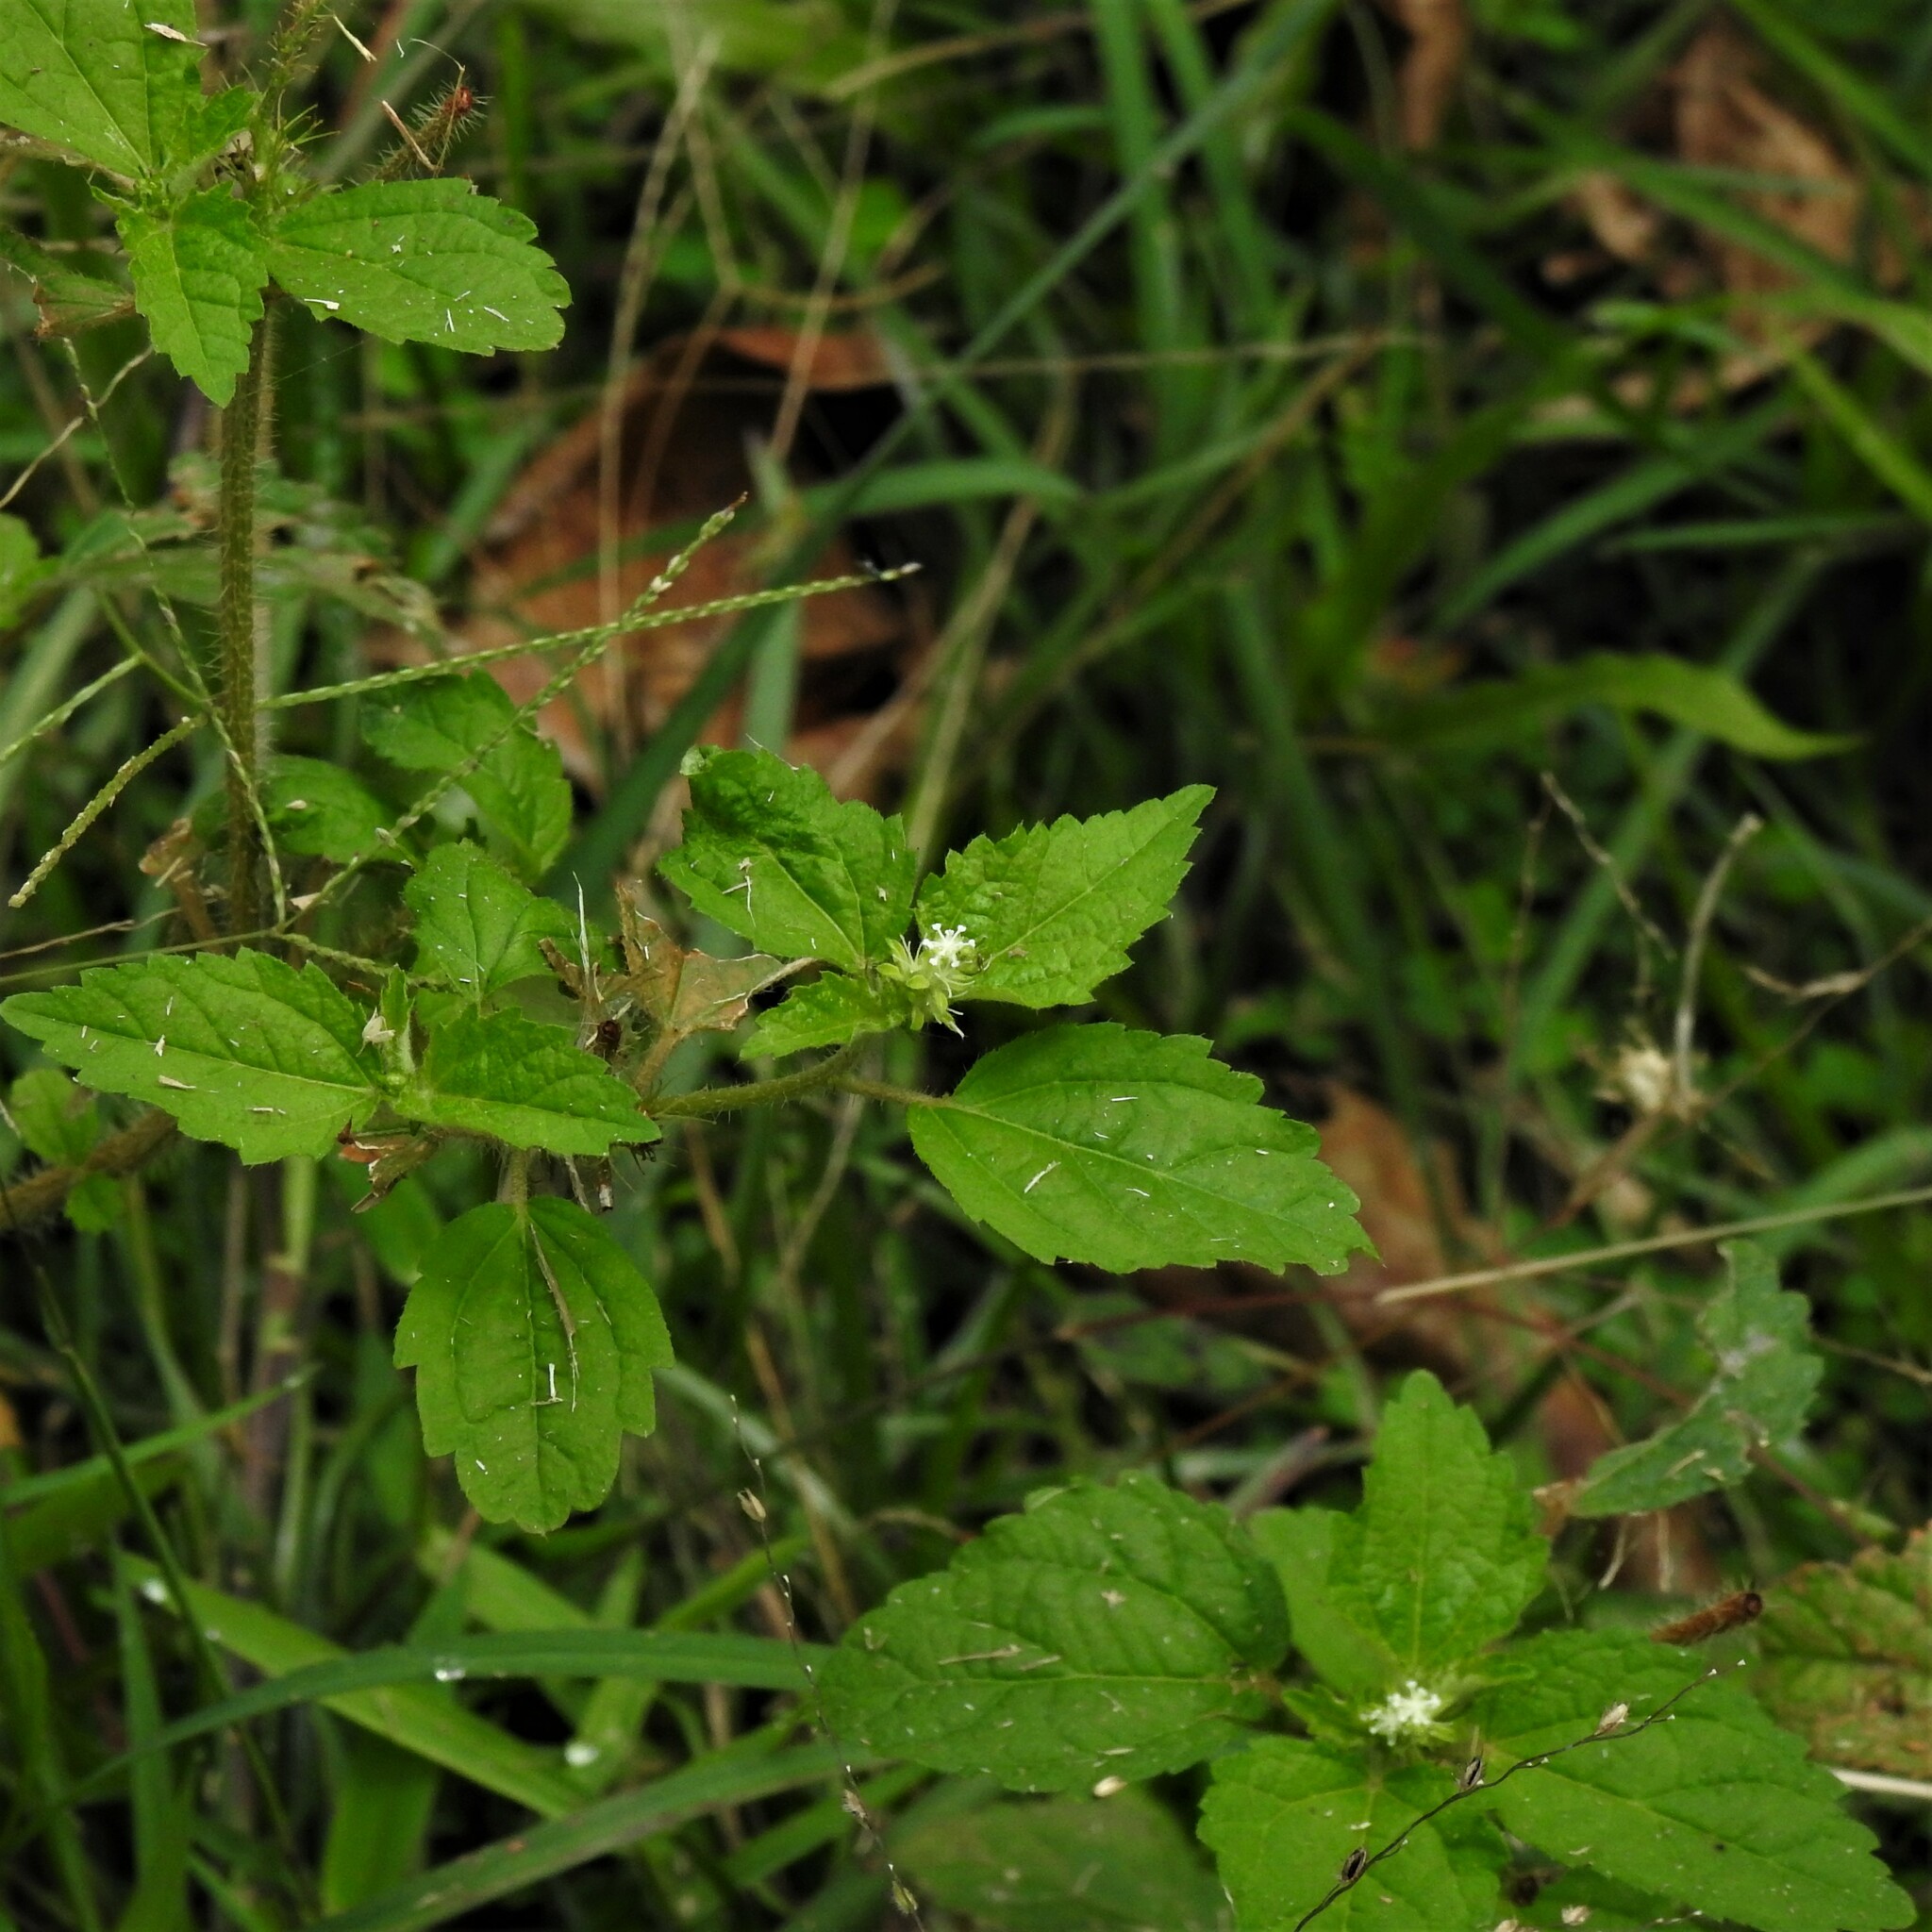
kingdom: Plantae
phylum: Tracheophyta
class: Magnoliopsida
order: Malpighiales
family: Euphorbiaceae
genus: Croton
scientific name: Croton hirtus
